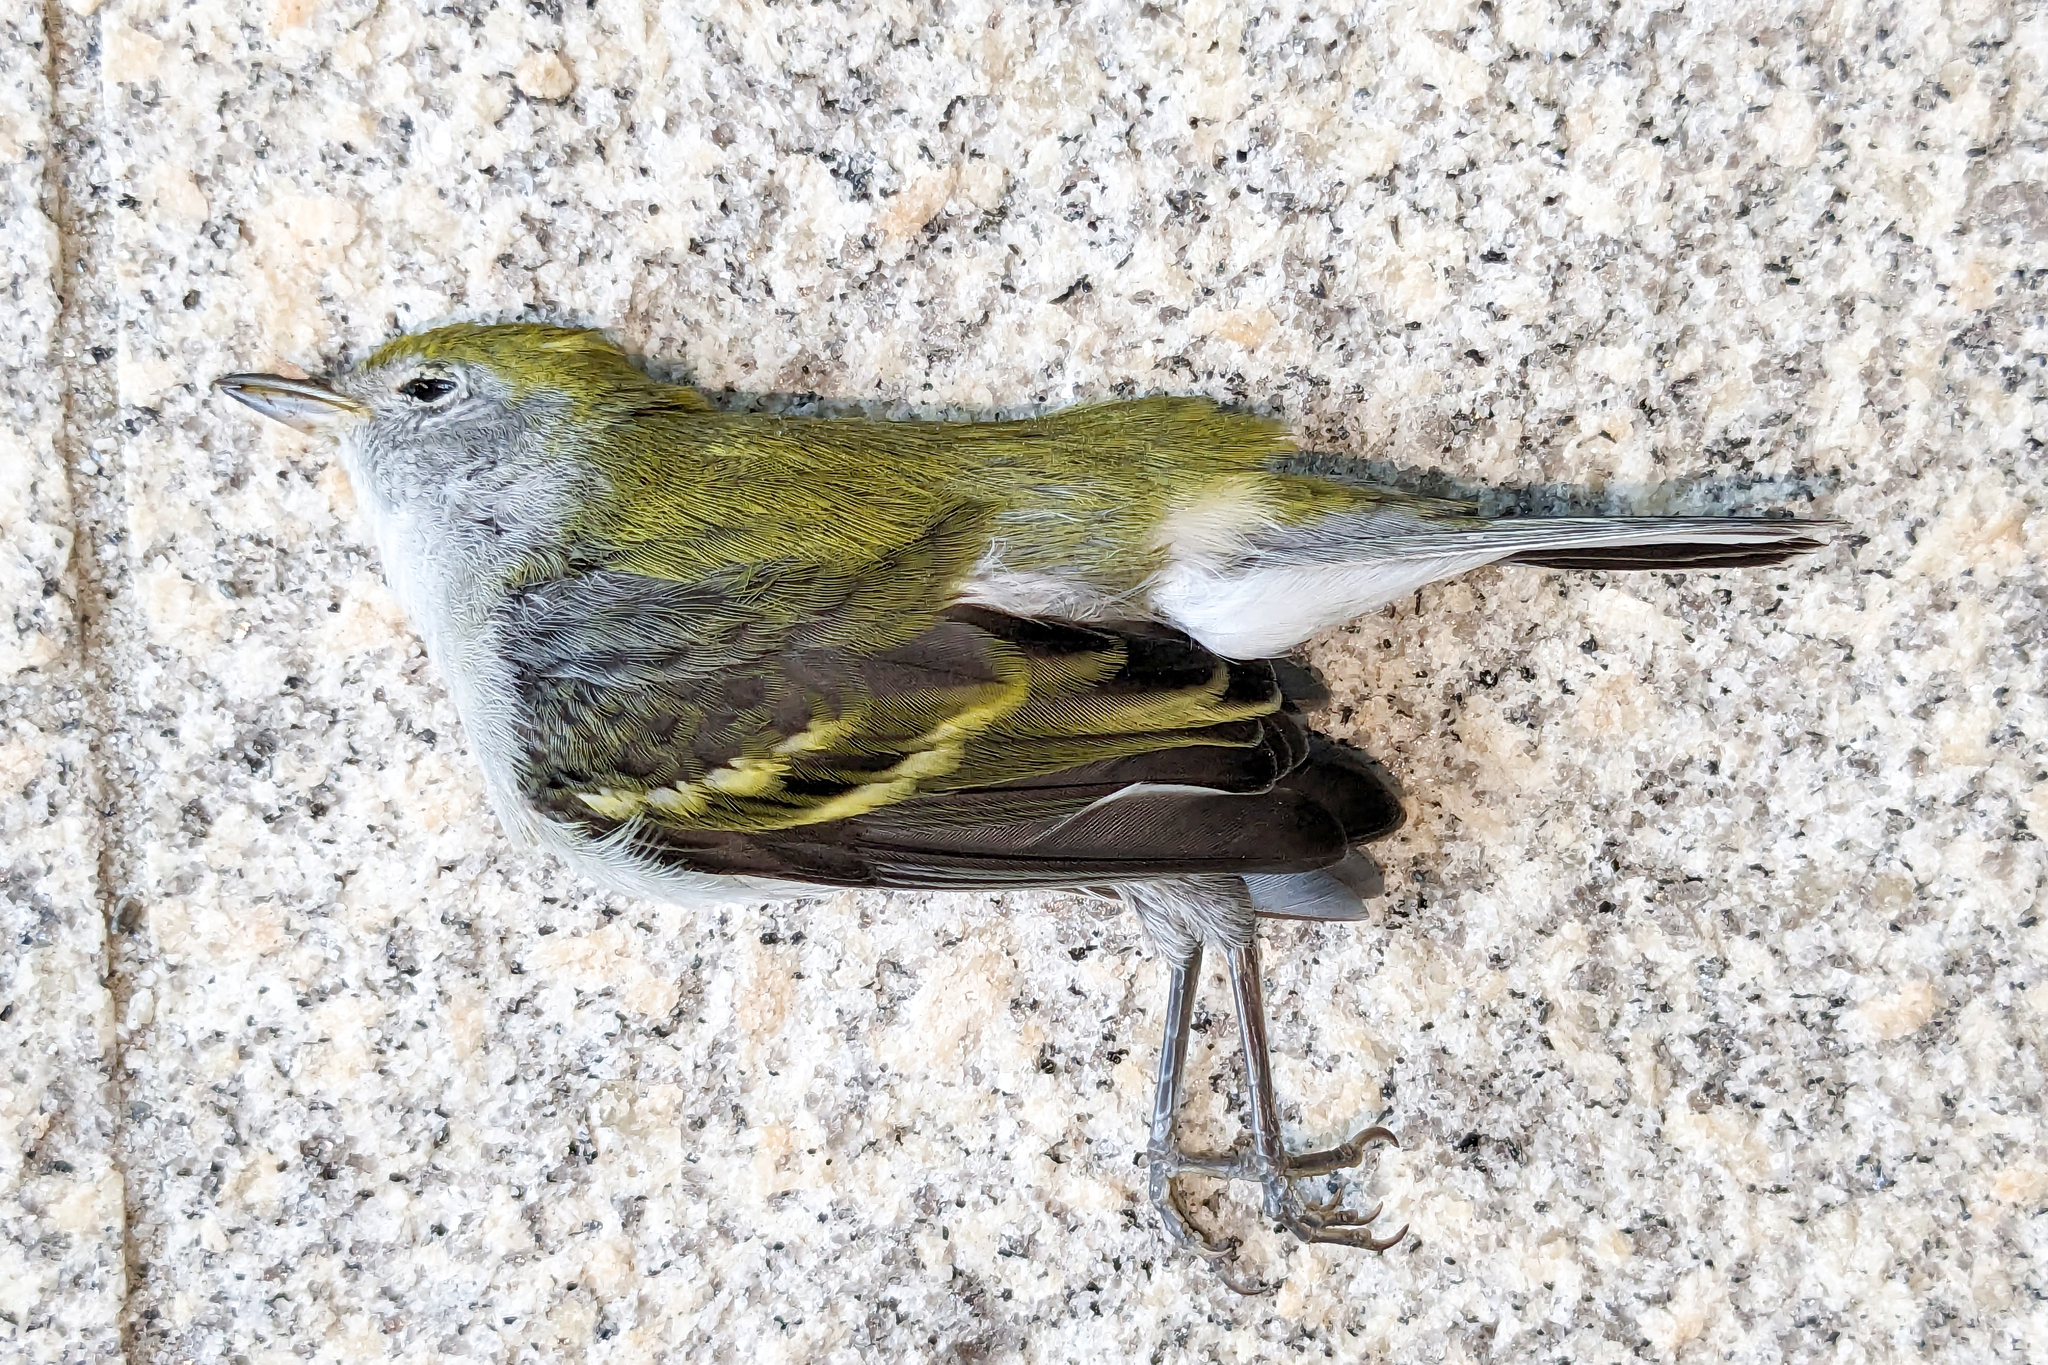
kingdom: Animalia
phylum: Chordata
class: Aves
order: Passeriformes
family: Parulidae
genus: Setophaga
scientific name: Setophaga pensylvanica
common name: Chestnut-sided warbler
